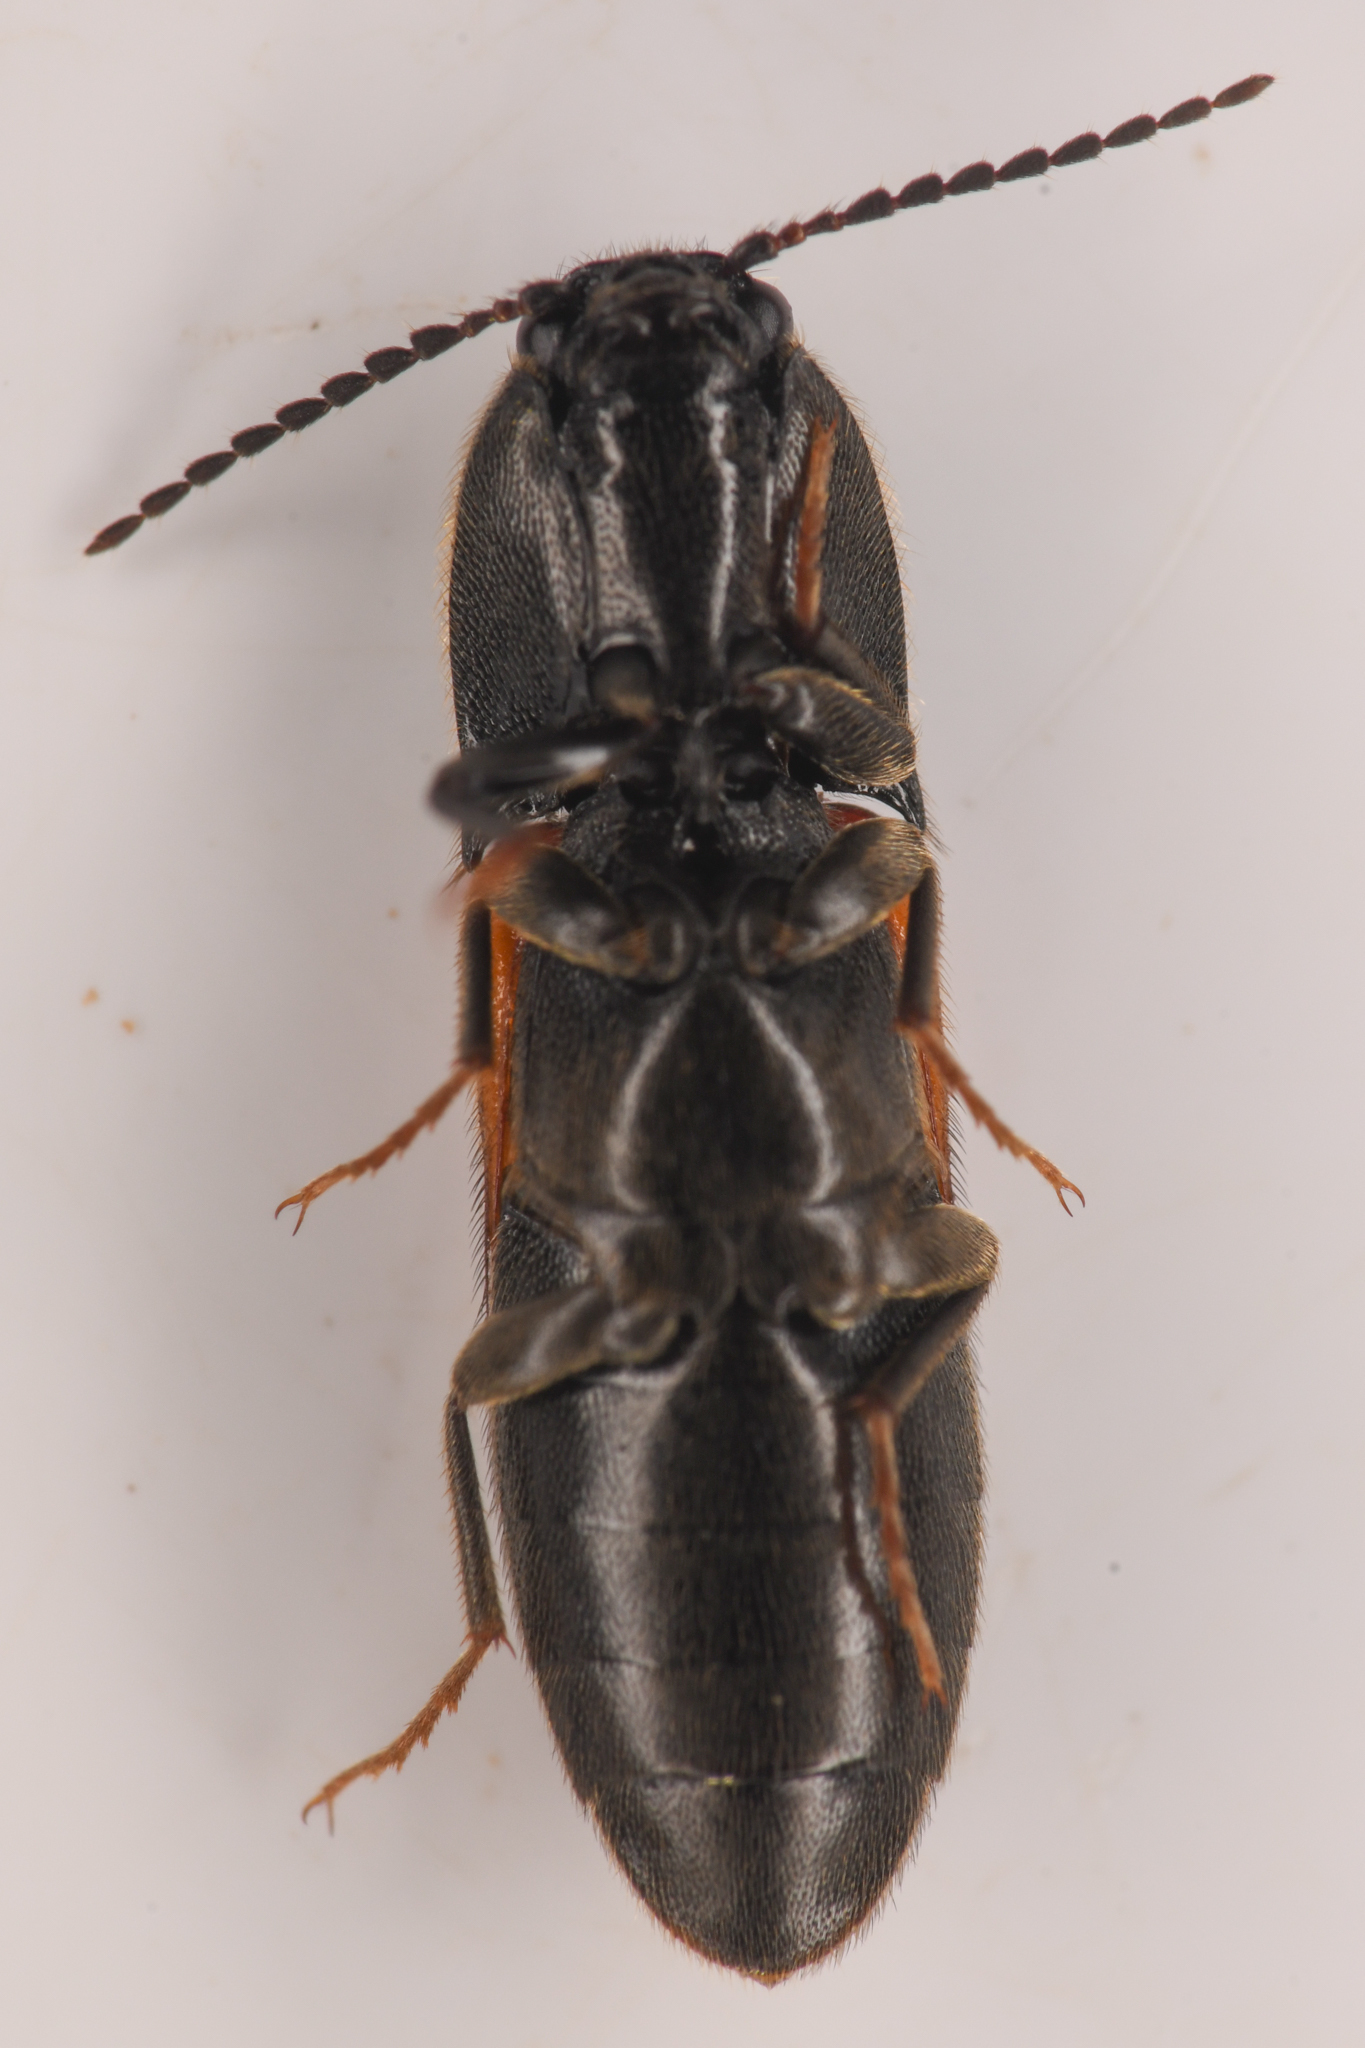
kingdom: Animalia
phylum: Arthropoda
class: Insecta
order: Coleoptera
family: Elateridae
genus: Ampedus
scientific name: Ampedus occidentalis
